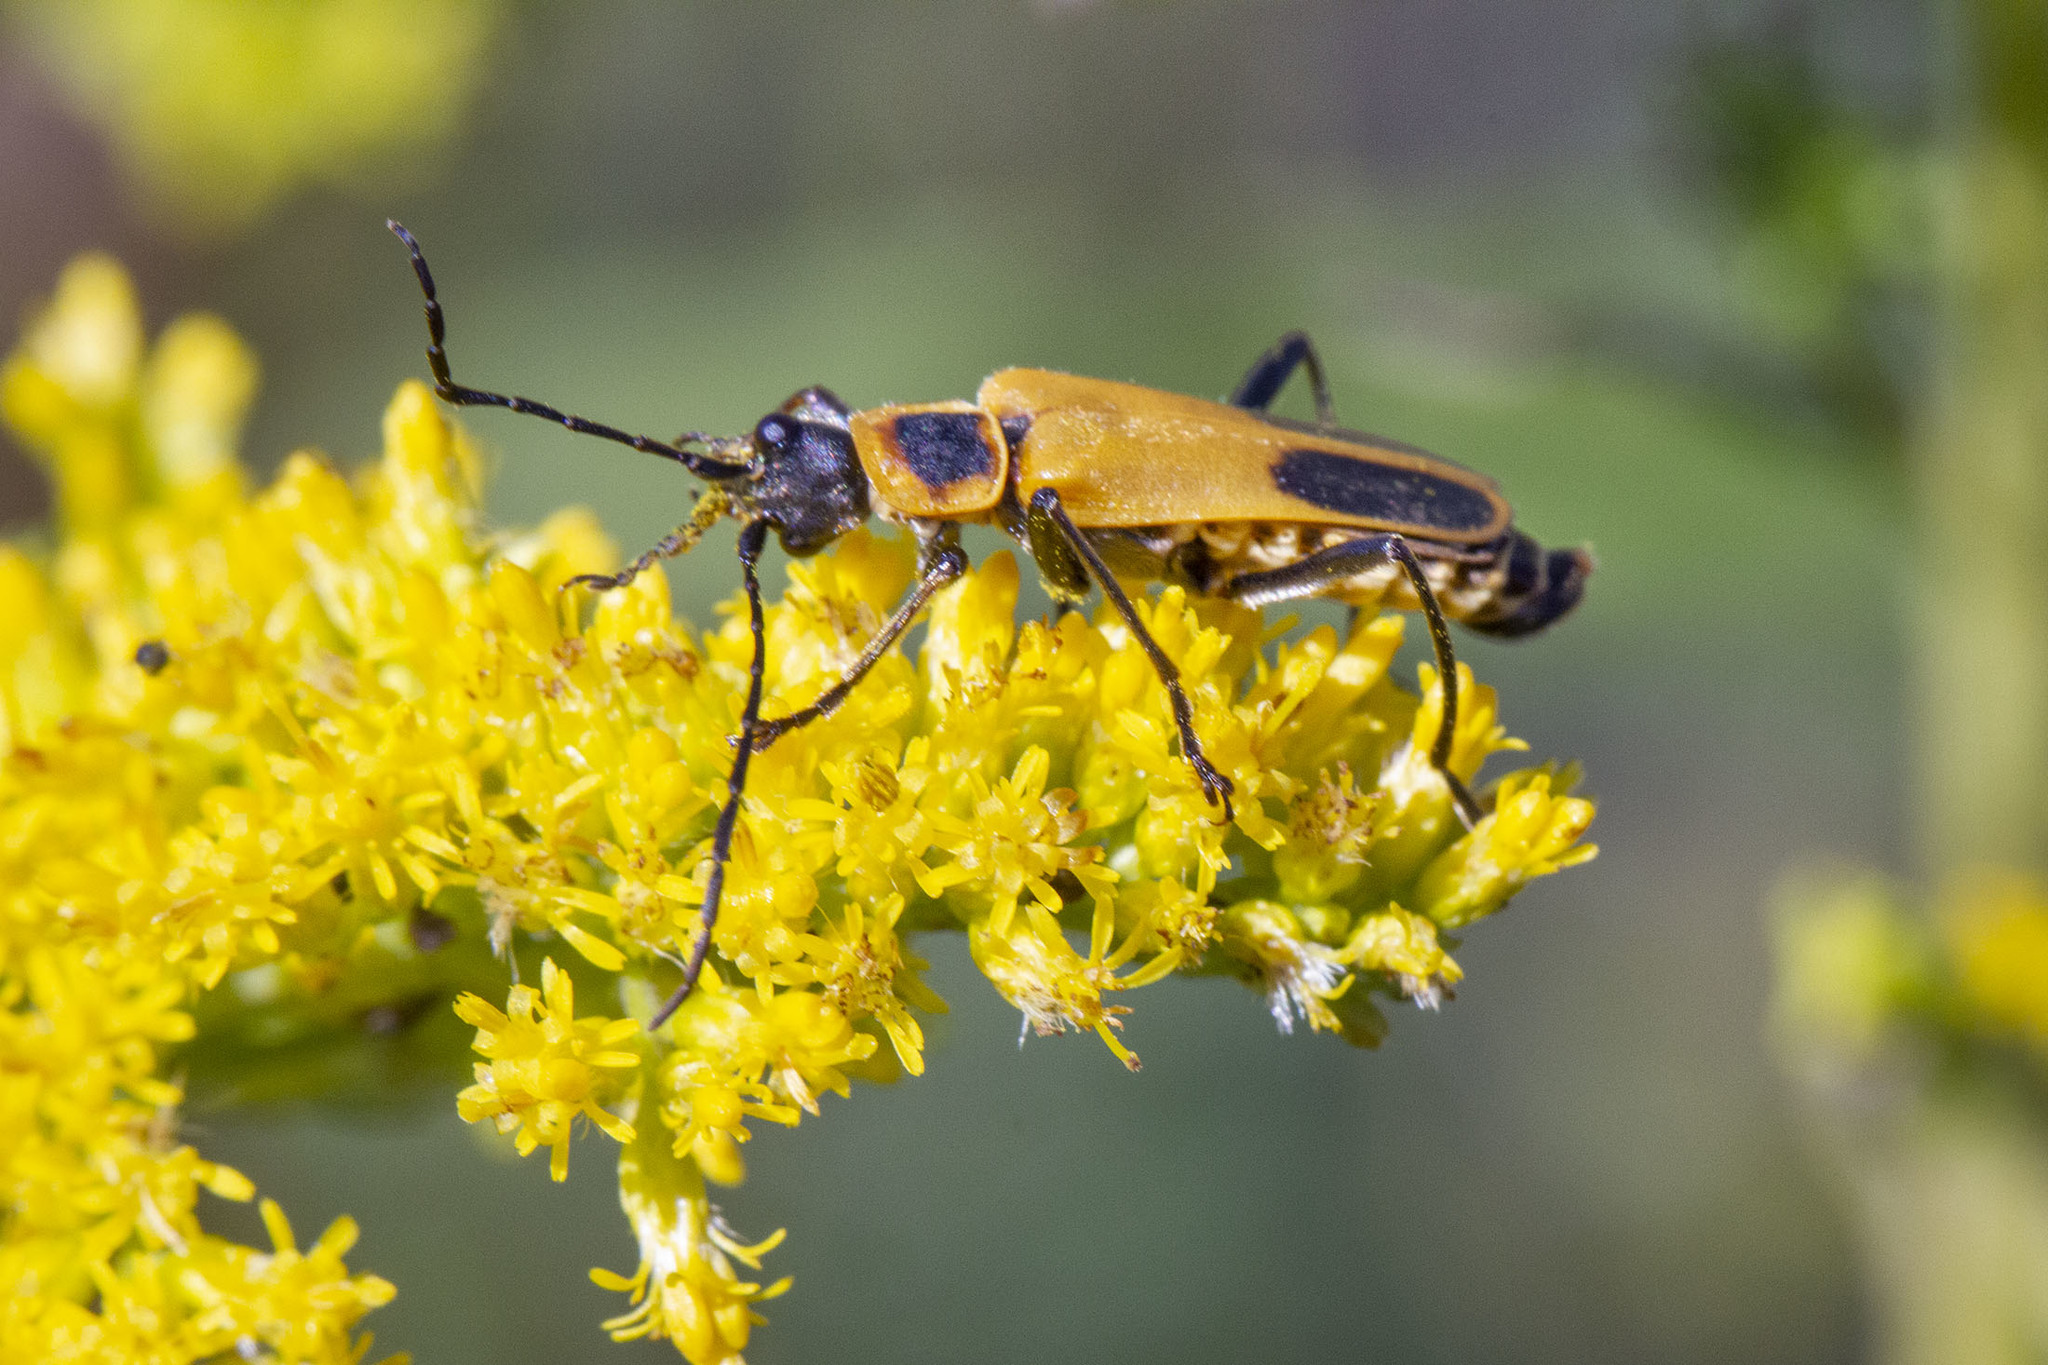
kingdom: Animalia
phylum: Arthropoda
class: Insecta
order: Coleoptera
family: Cantharidae
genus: Chauliognathus
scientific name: Chauliognathus pensylvanicus
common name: Goldenrod soldier beetle
